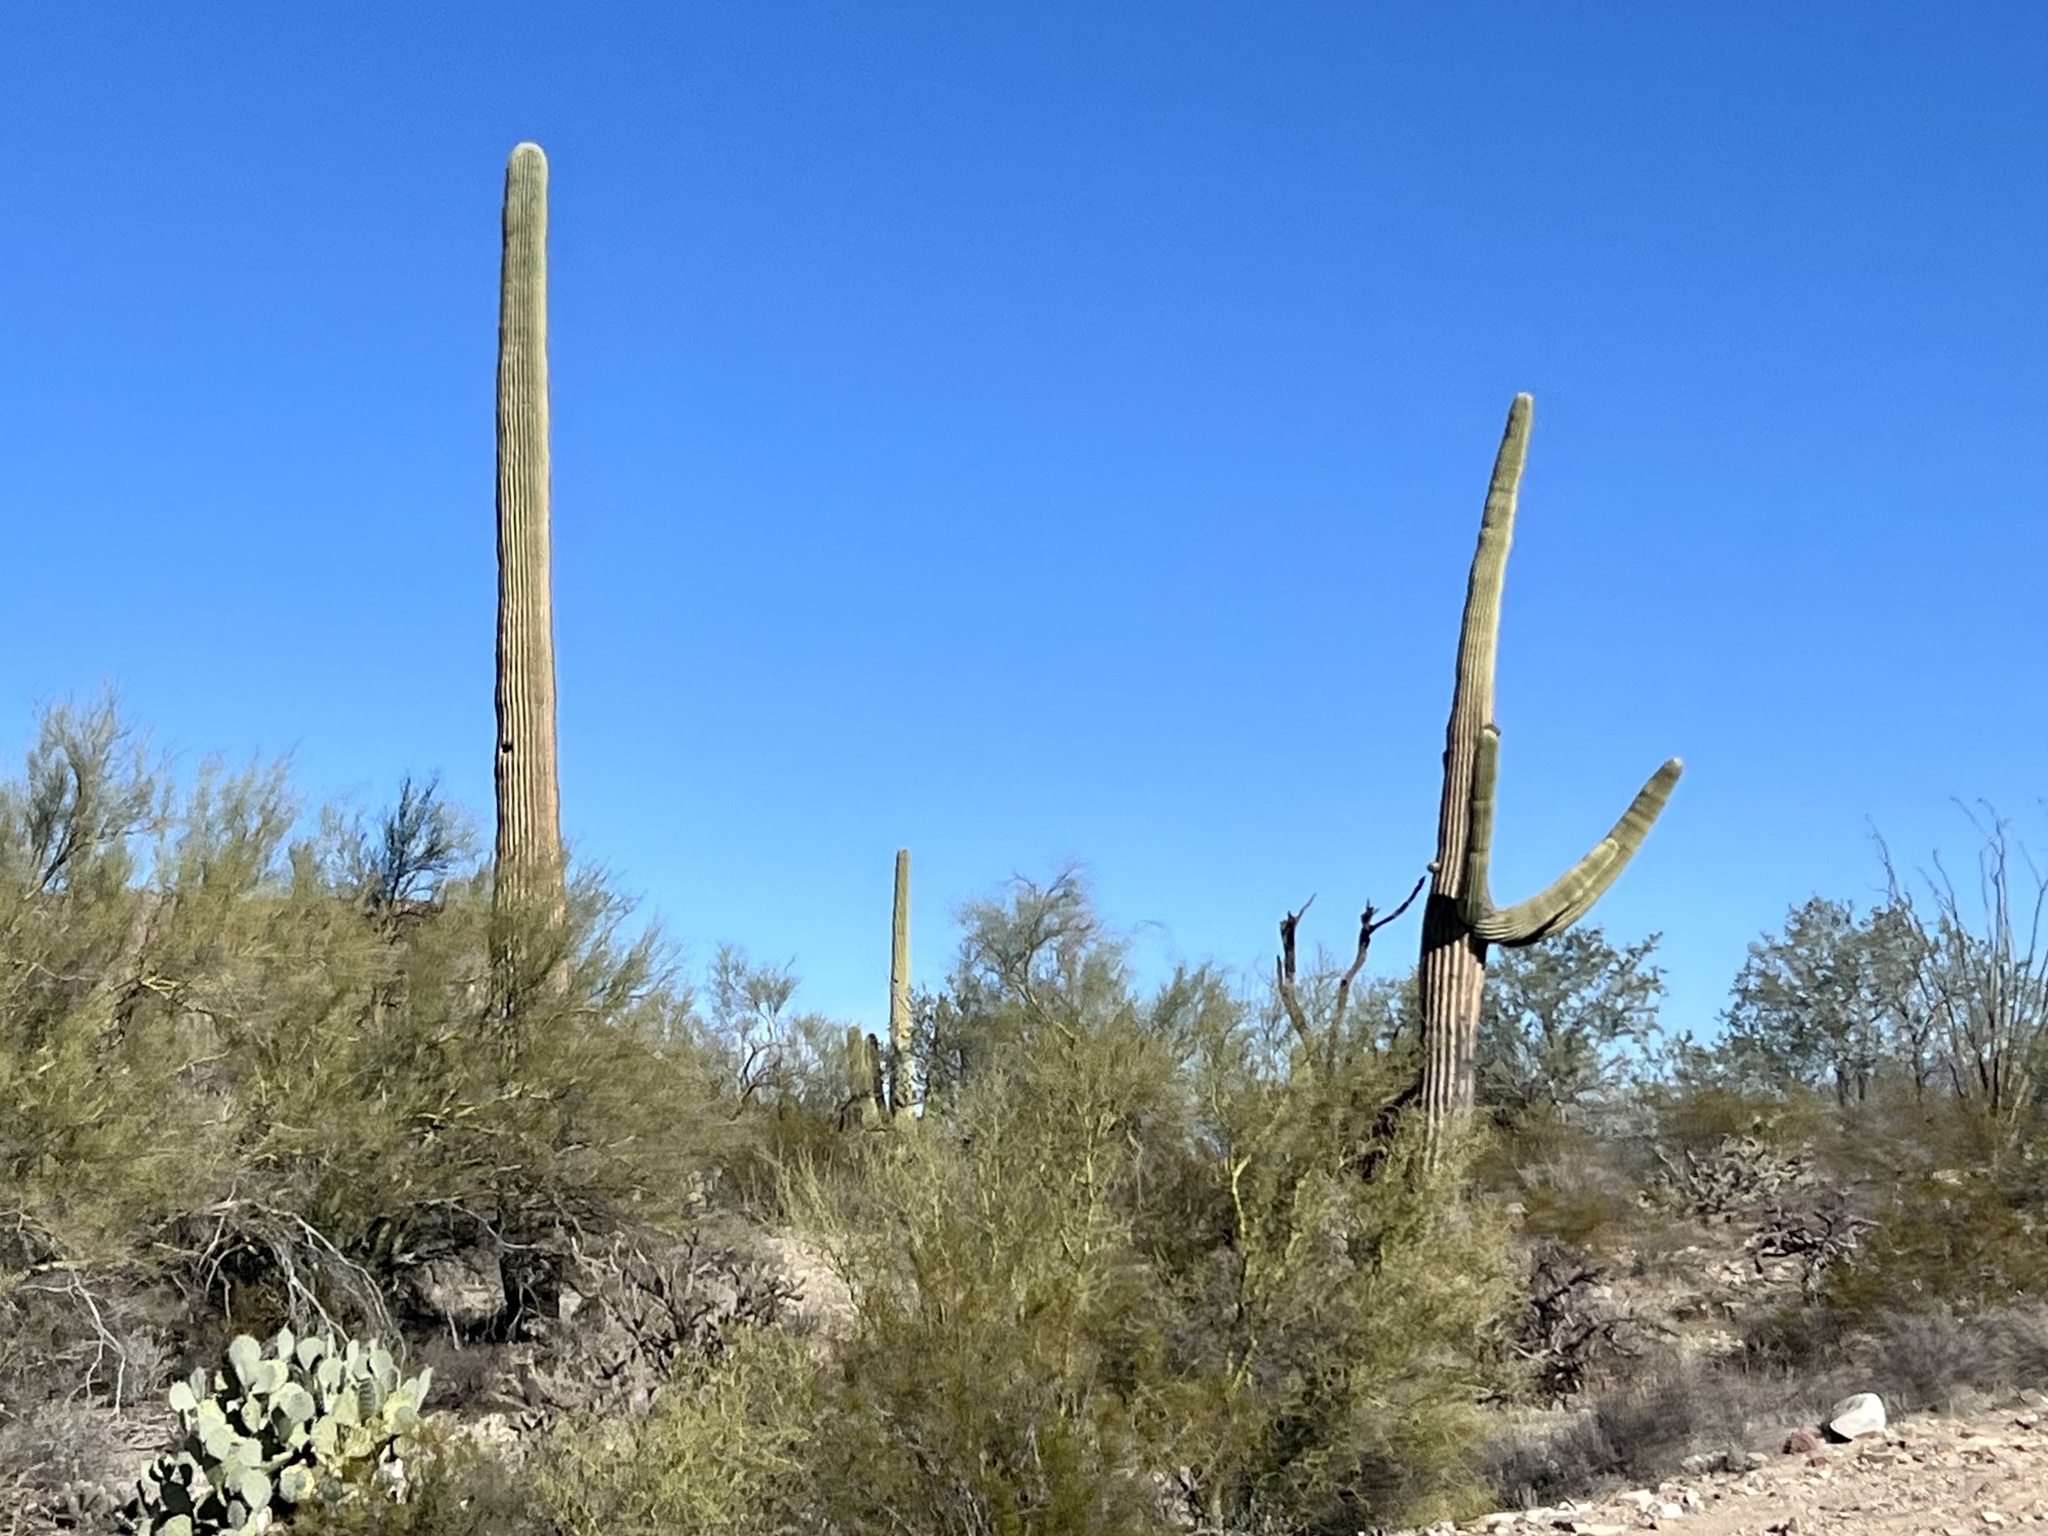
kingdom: Plantae
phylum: Tracheophyta
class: Magnoliopsida
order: Caryophyllales
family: Cactaceae
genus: Carnegiea
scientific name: Carnegiea gigantea
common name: Saguaro
